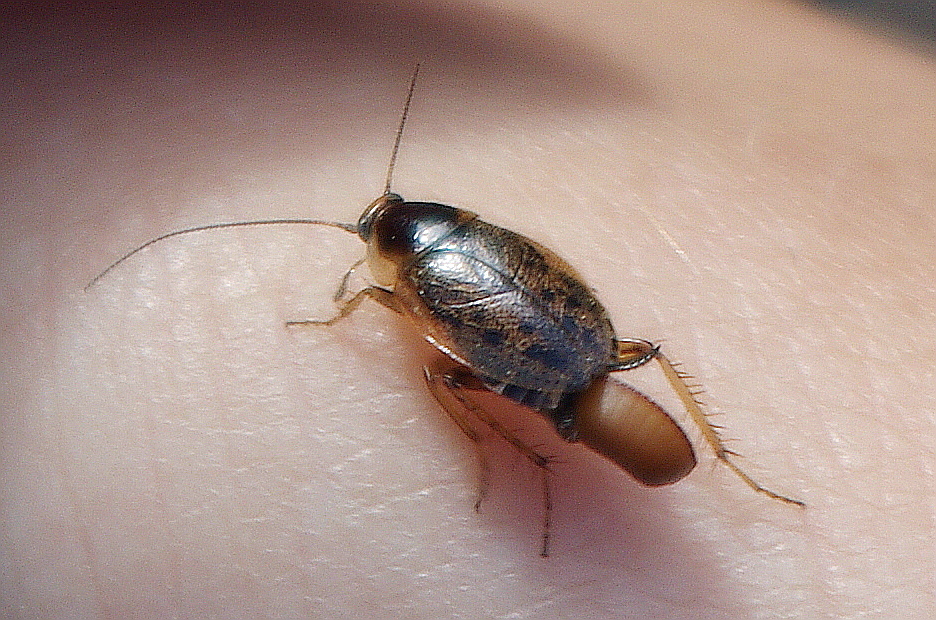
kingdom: Animalia
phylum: Arthropoda
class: Insecta
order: Blattodea
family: Ectobiidae
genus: Ectobius
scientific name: Ectobius lapponicus
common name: Dusky cockroach
